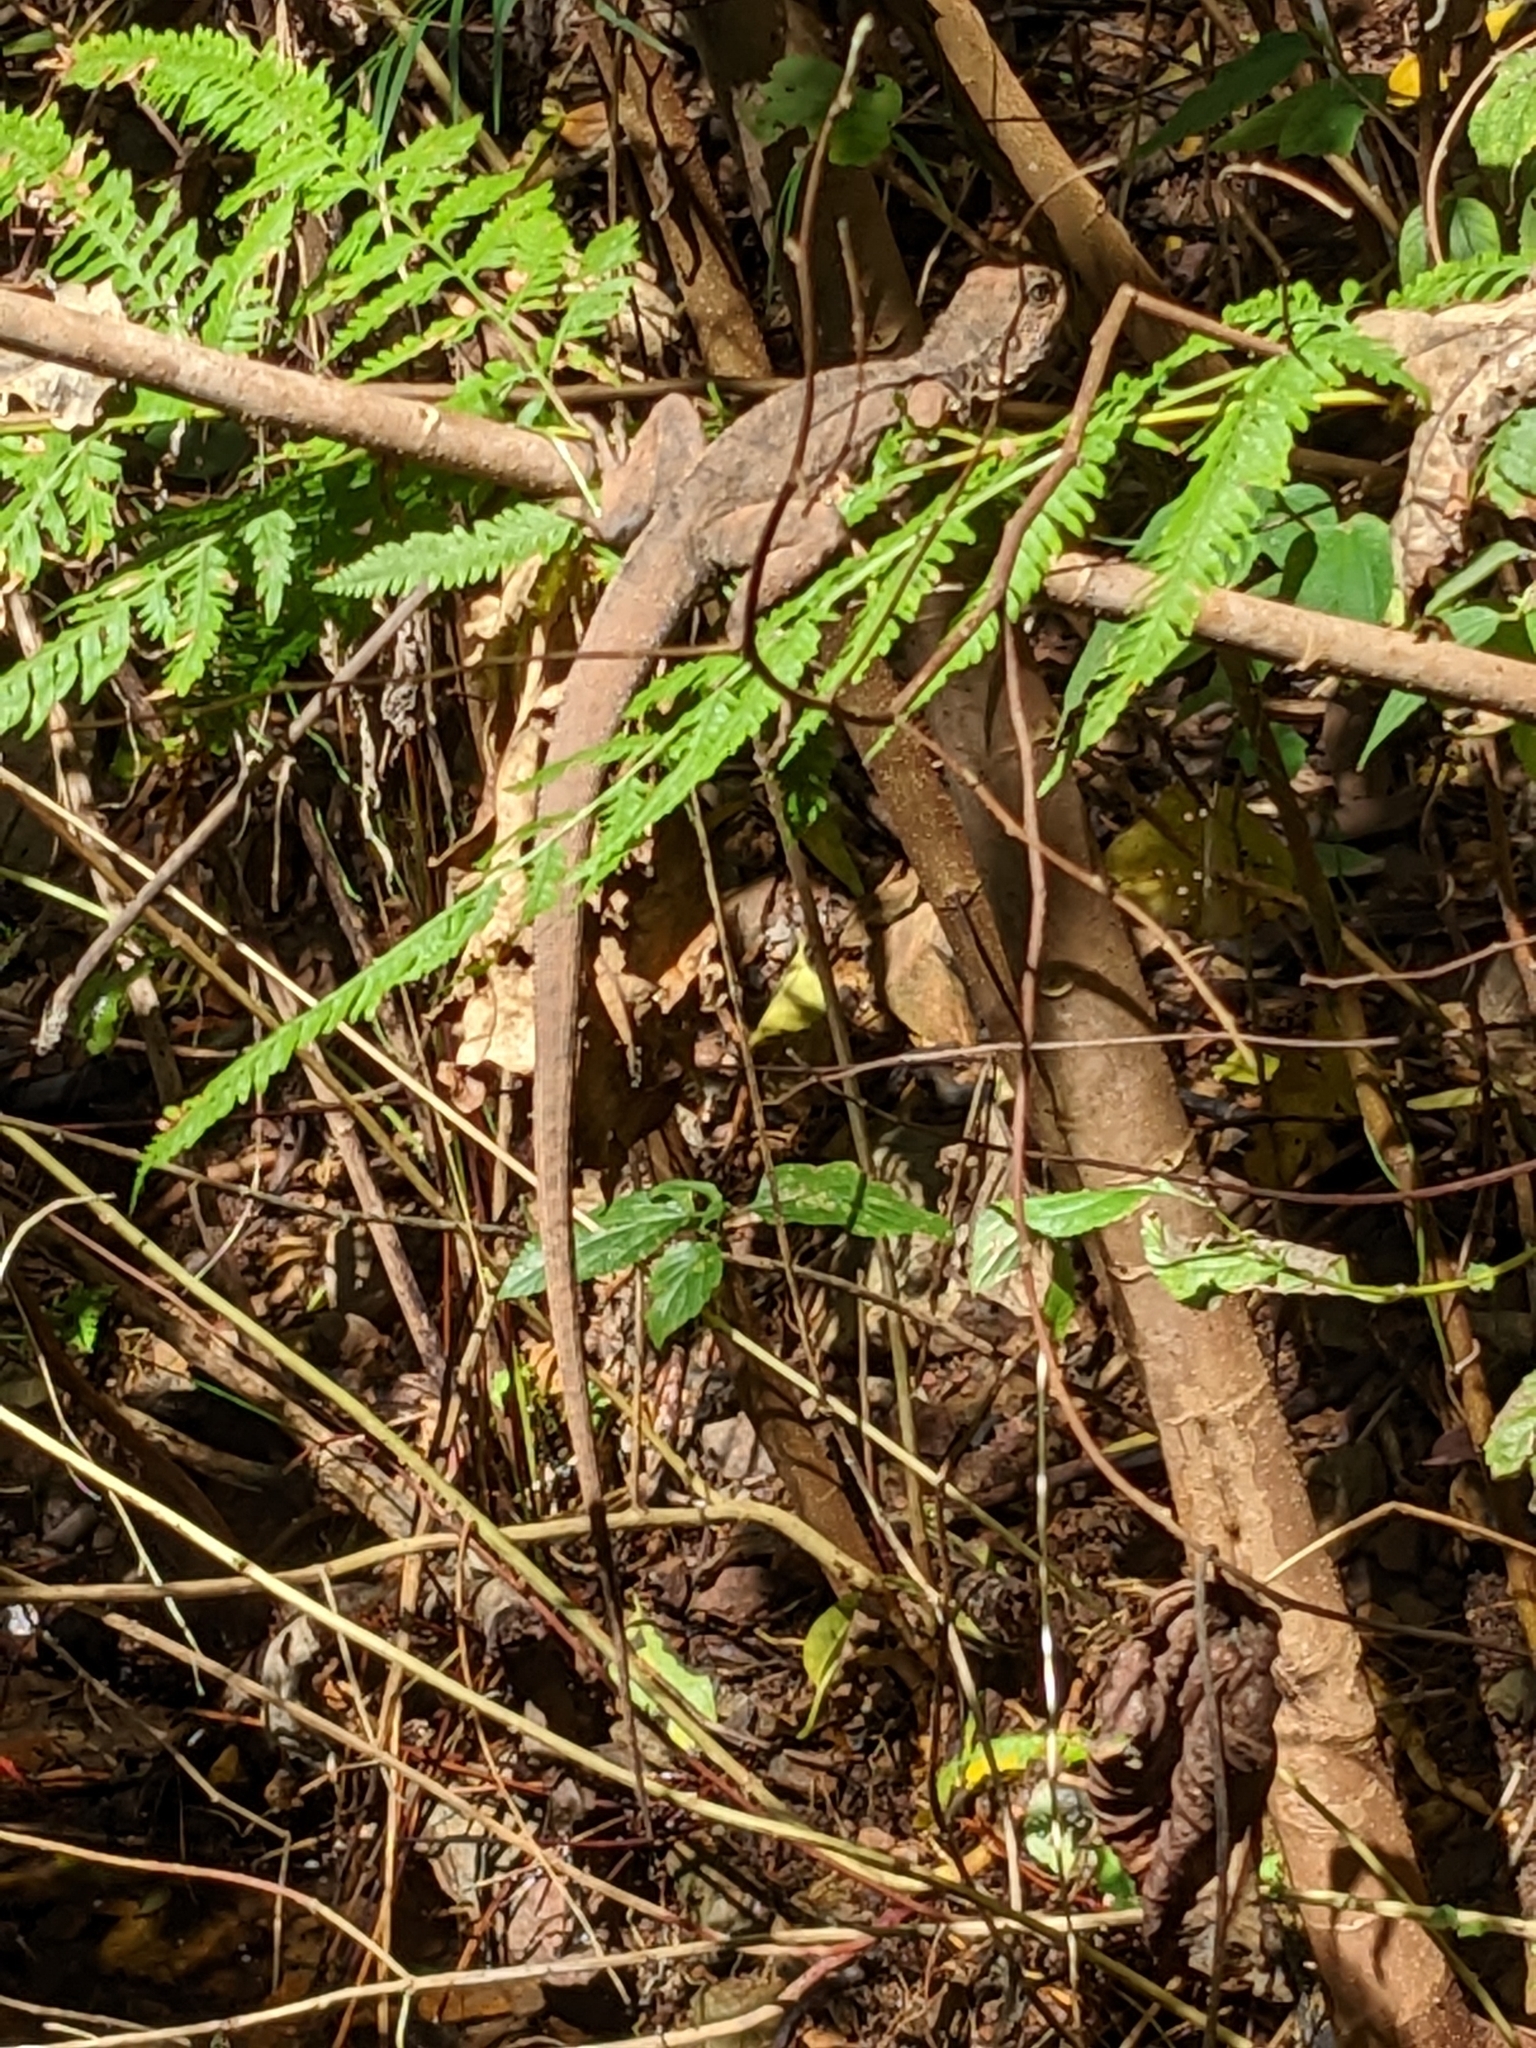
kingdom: Animalia
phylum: Chordata
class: Squamata
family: Agamidae
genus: Intellagama
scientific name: Intellagama lesueurii
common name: Eastern water dragon
